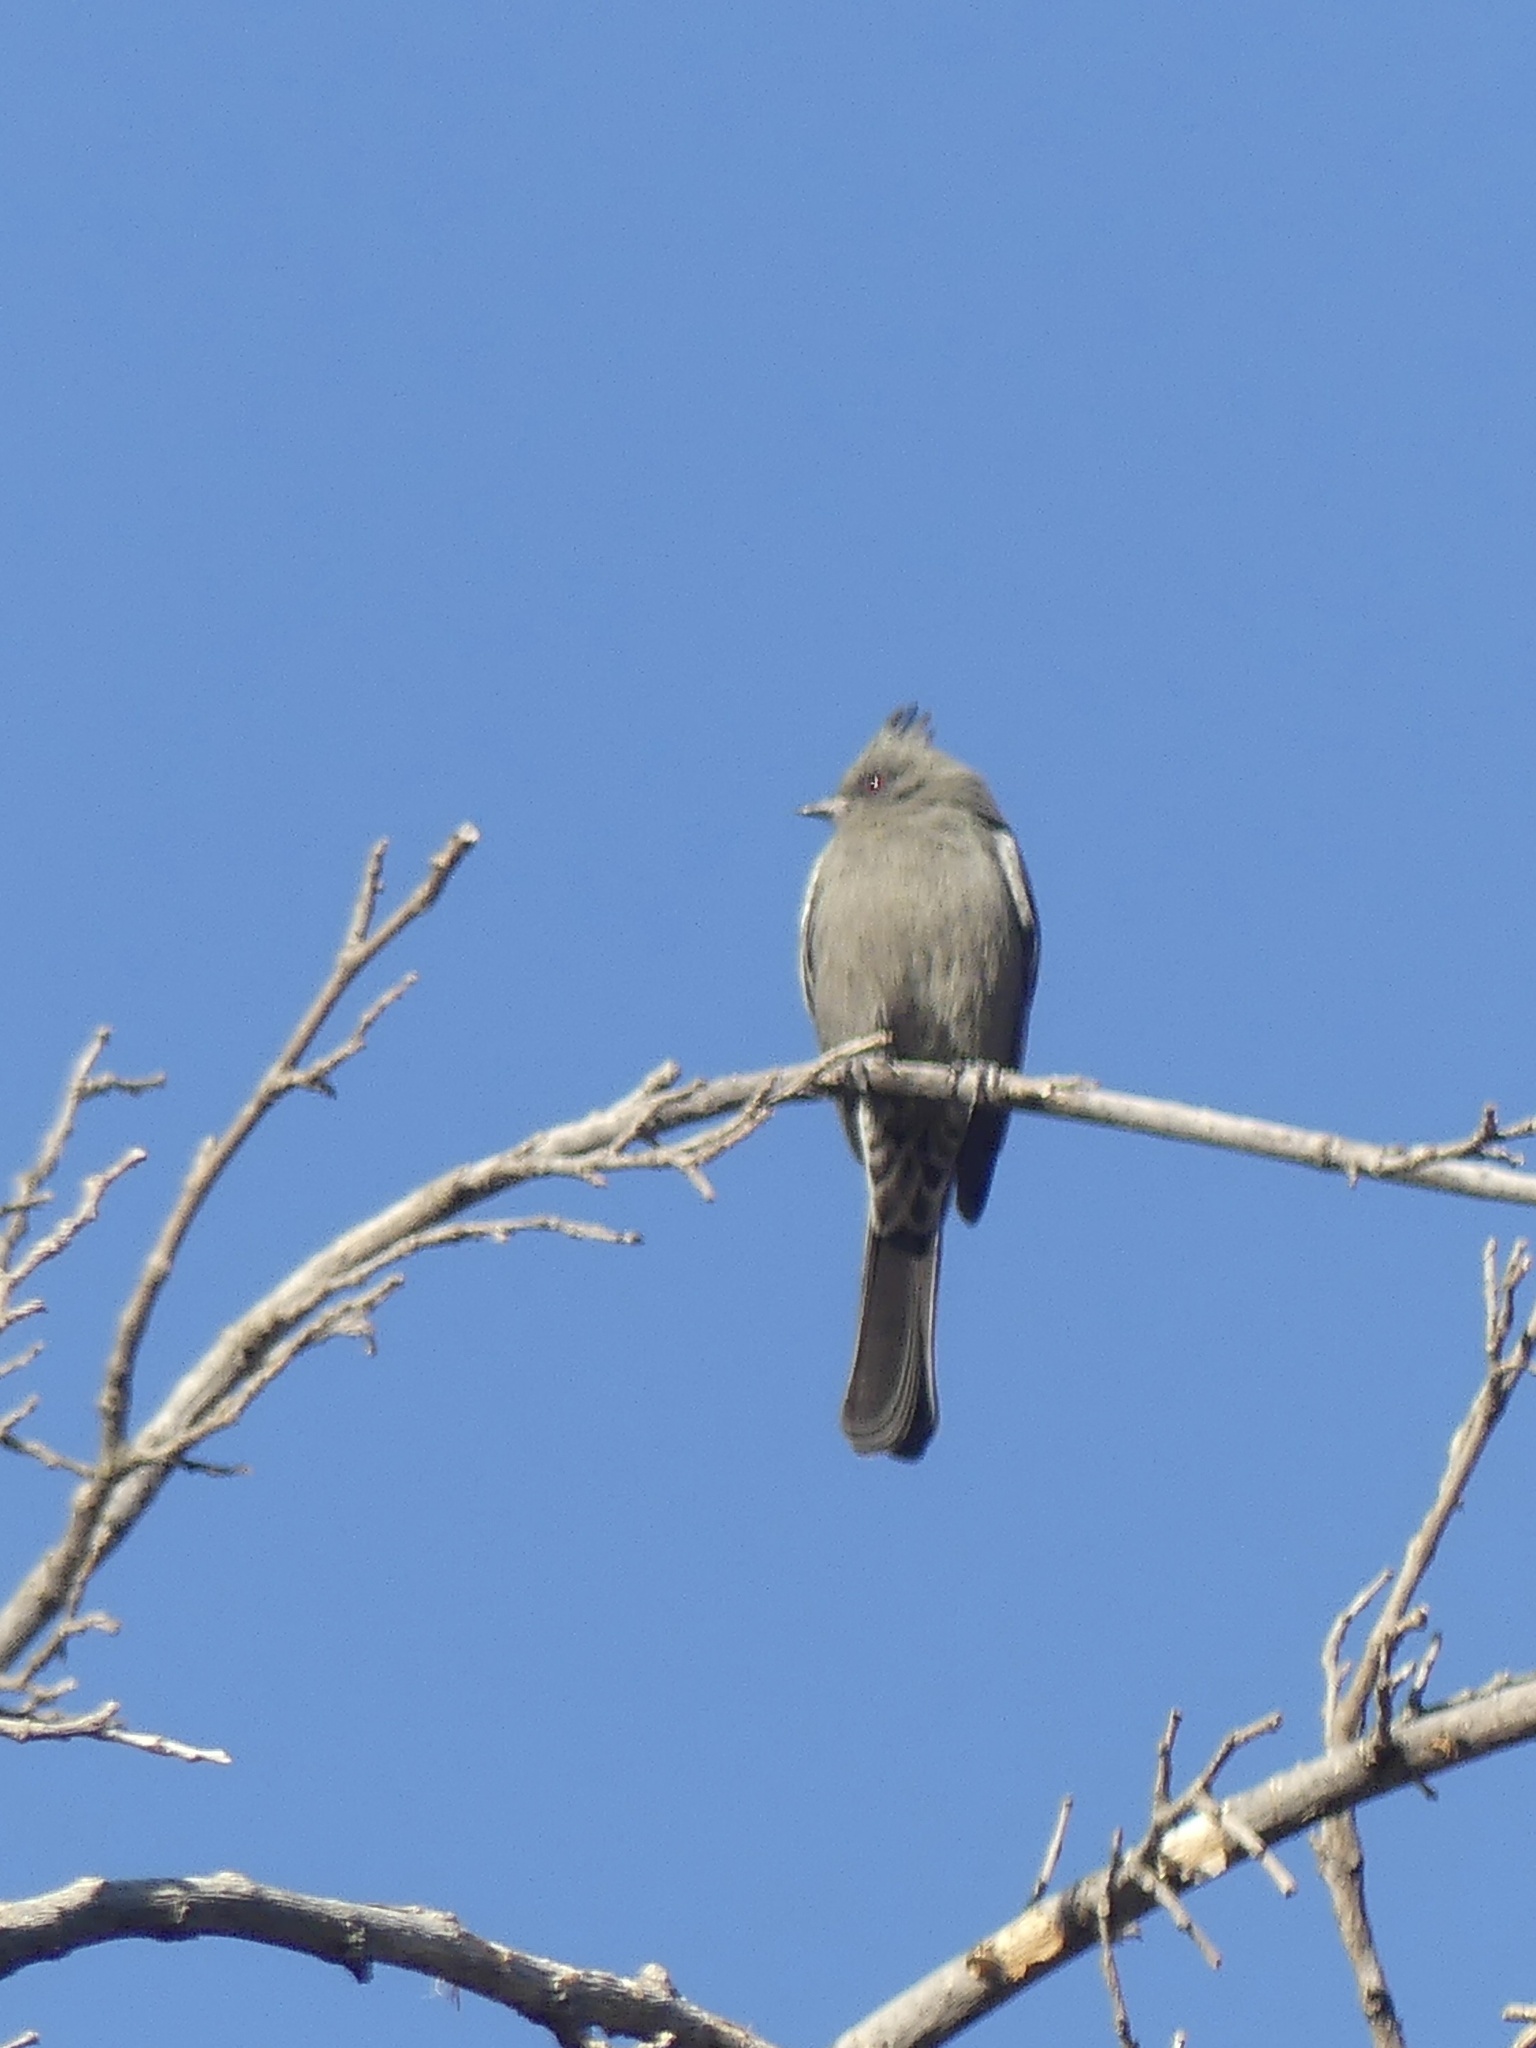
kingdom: Animalia
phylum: Chordata
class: Aves
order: Passeriformes
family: Ptilogonatidae
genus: Phainopepla
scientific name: Phainopepla nitens
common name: Phainopepla
